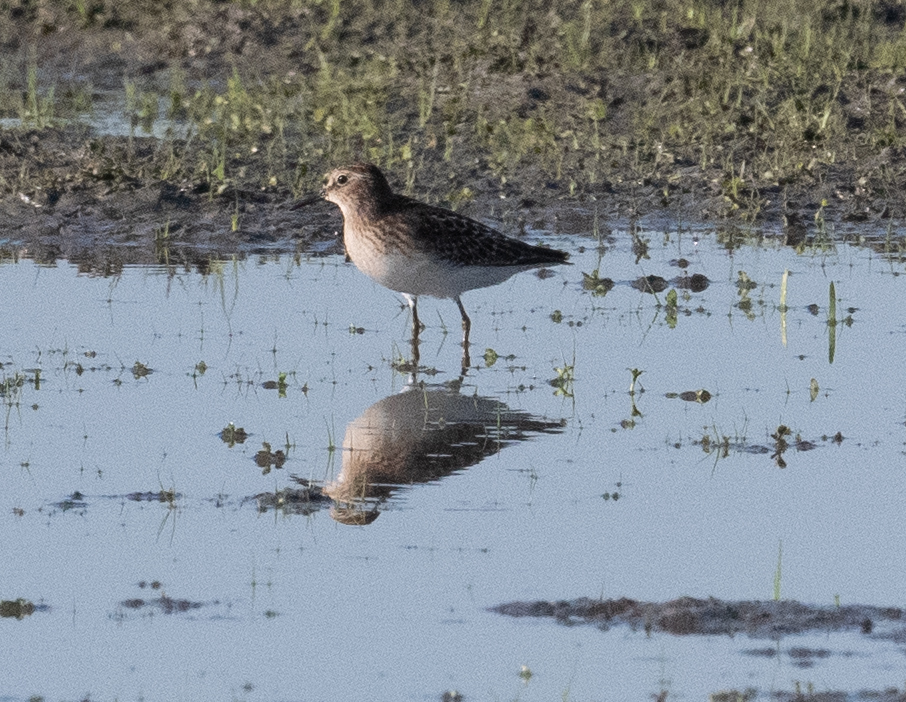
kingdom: Animalia
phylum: Chordata
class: Aves
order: Charadriiformes
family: Scolopacidae
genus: Calidris
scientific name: Calidris minutilla
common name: Least sandpiper
